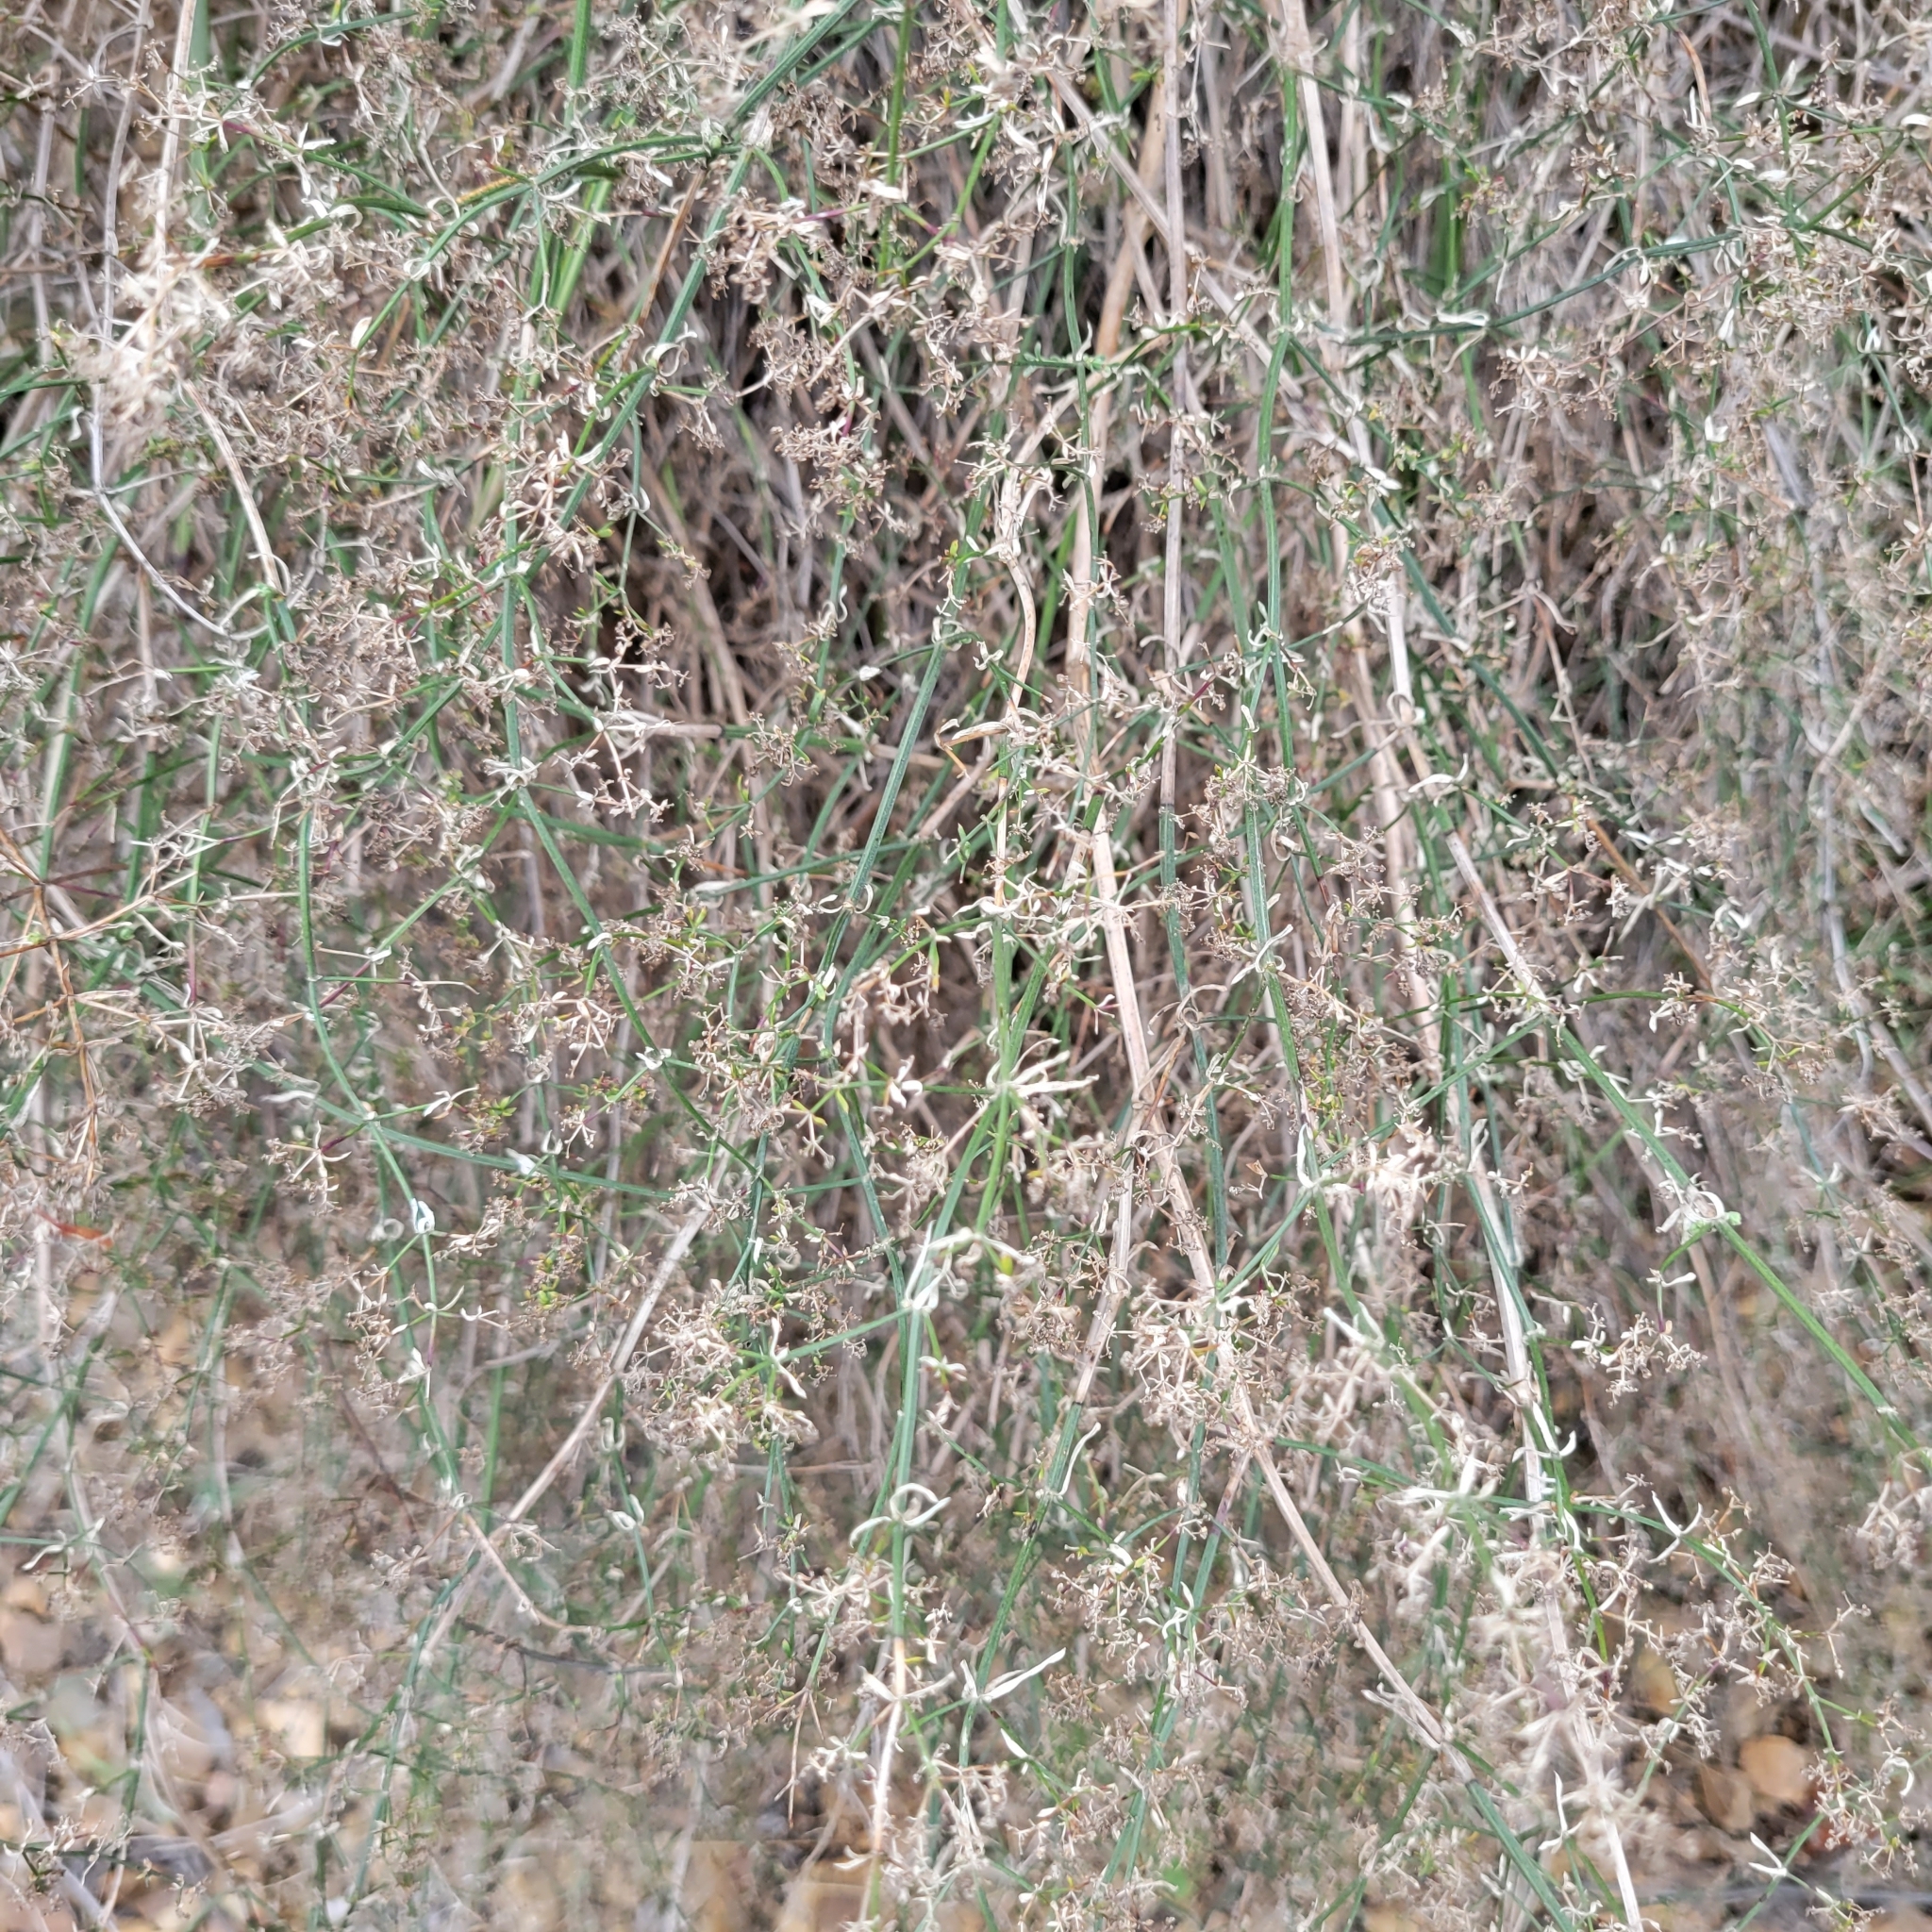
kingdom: Plantae
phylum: Tracheophyta
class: Magnoliopsida
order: Gentianales
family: Rubiaceae
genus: Galium
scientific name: Galium angustifolium
